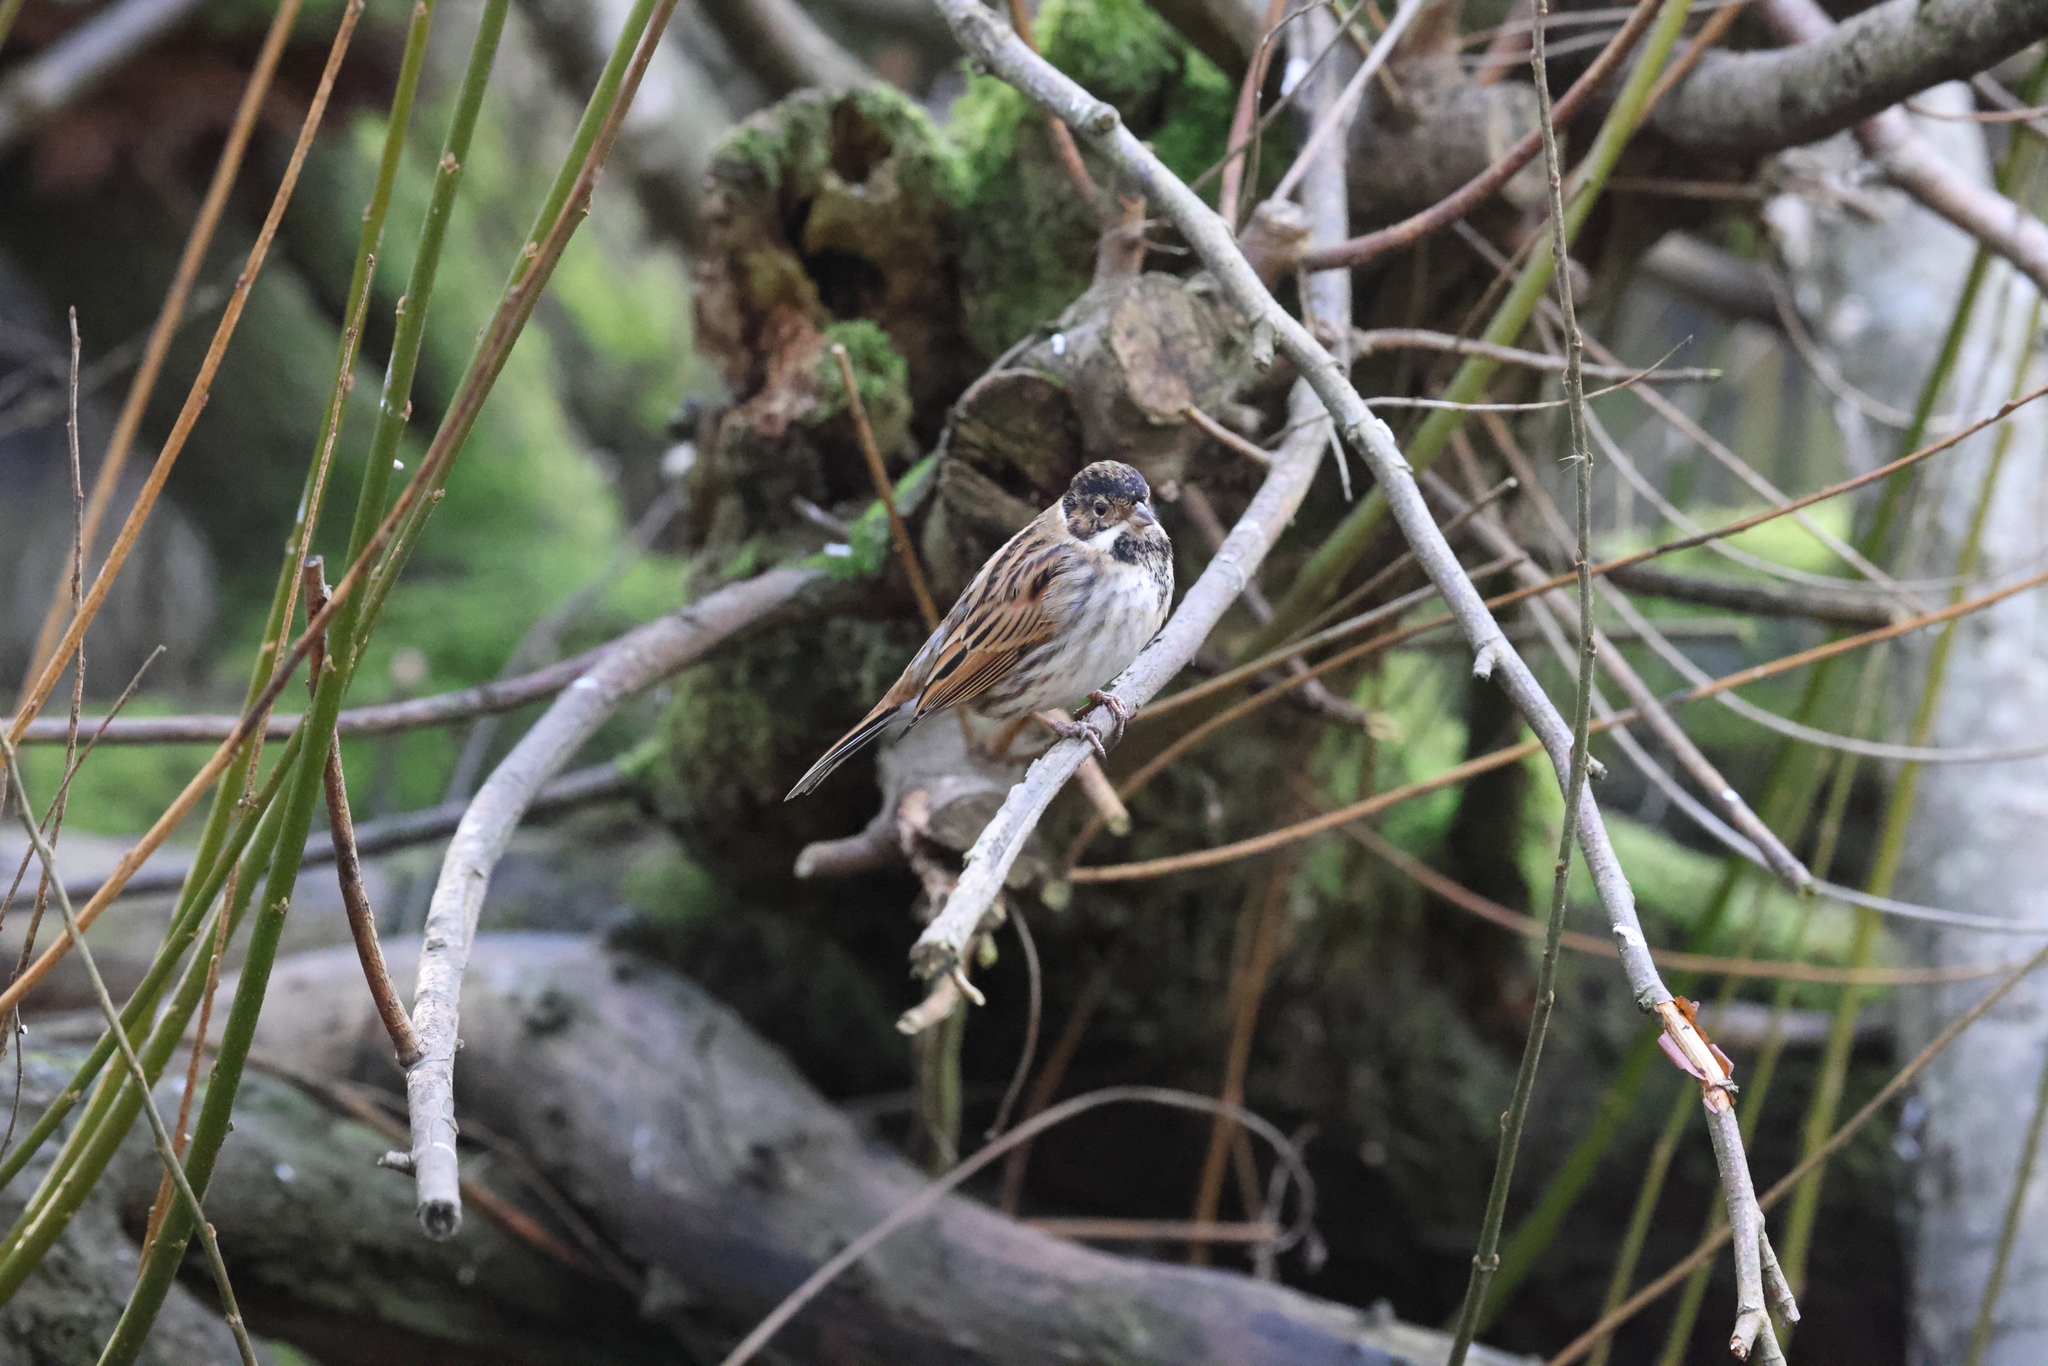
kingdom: Animalia
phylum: Chordata
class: Aves
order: Passeriformes
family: Emberizidae
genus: Emberiza
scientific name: Emberiza schoeniclus
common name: Reed bunting
